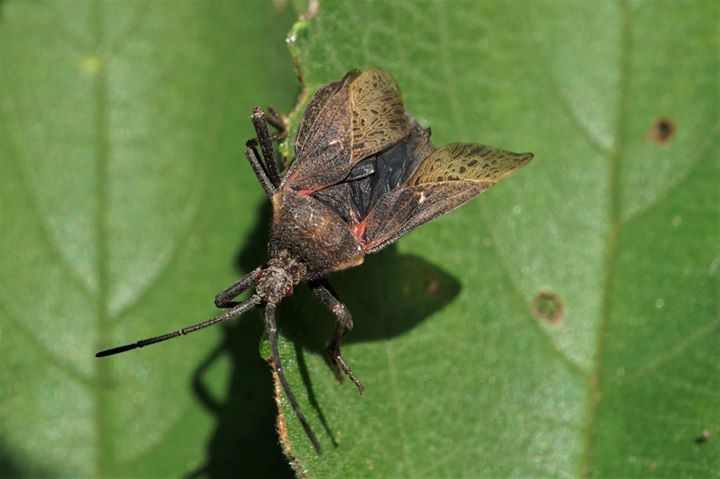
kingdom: Animalia
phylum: Arthropoda
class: Insecta
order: Hemiptera
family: Coreidae
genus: Spartocera
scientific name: Spartocera batatas
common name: Giant sweetpotato bug
